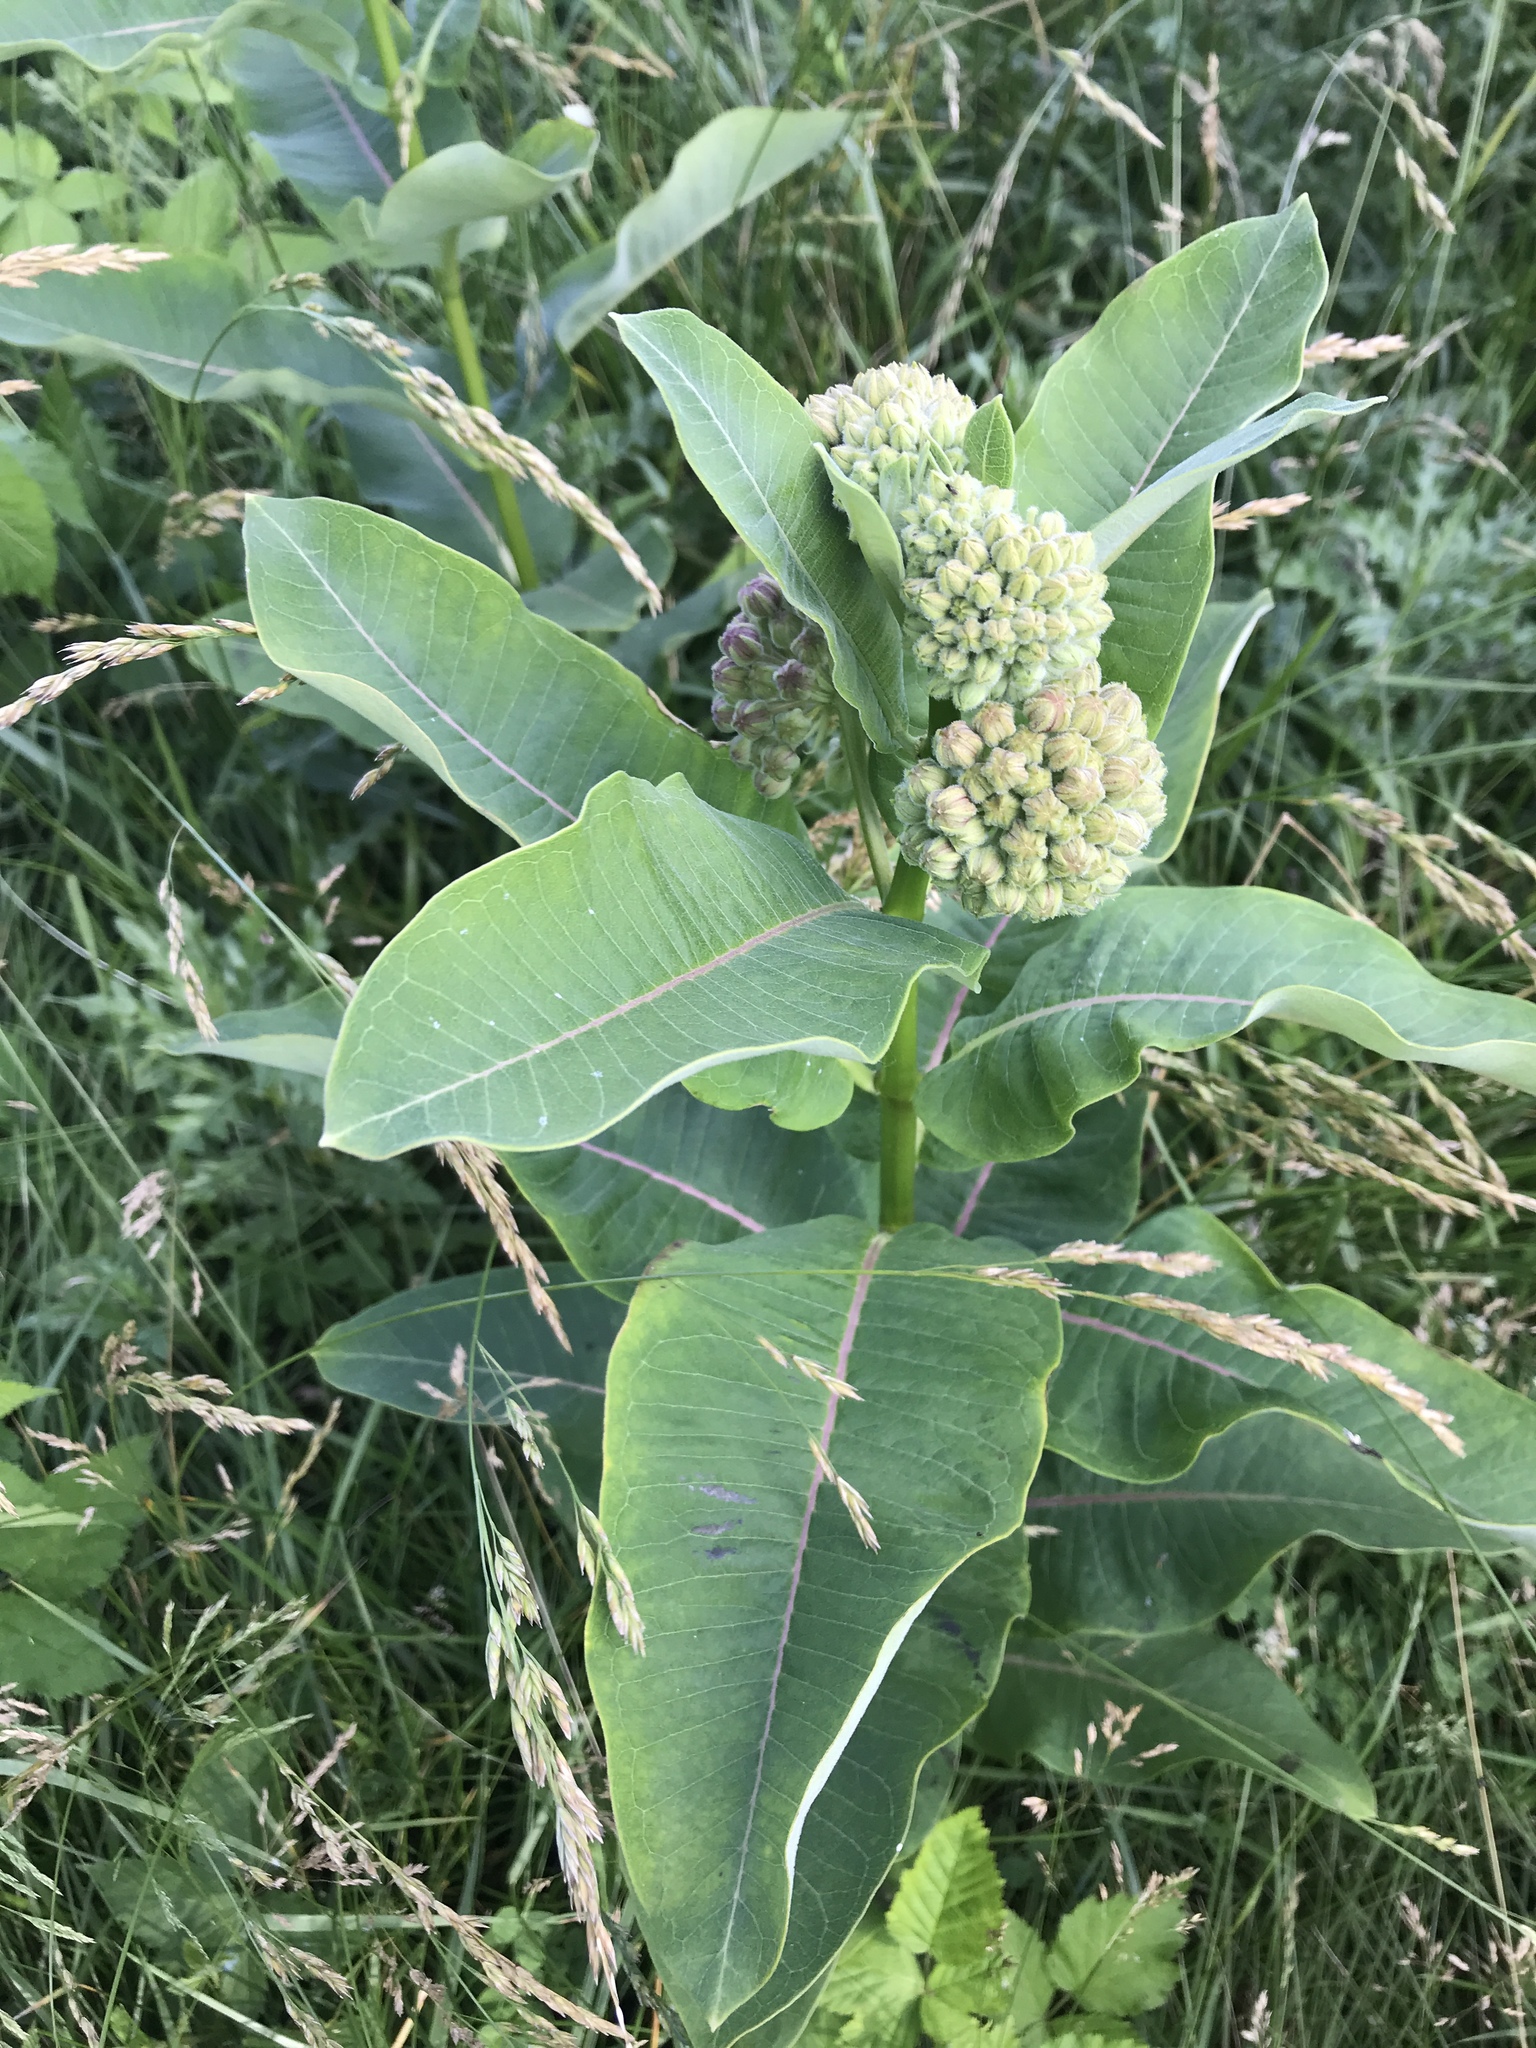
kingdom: Plantae
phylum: Tracheophyta
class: Magnoliopsida
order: Gentianales
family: Apocynaceae
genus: Asclepias
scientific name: Asclepias syriaca
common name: Common milkweed
